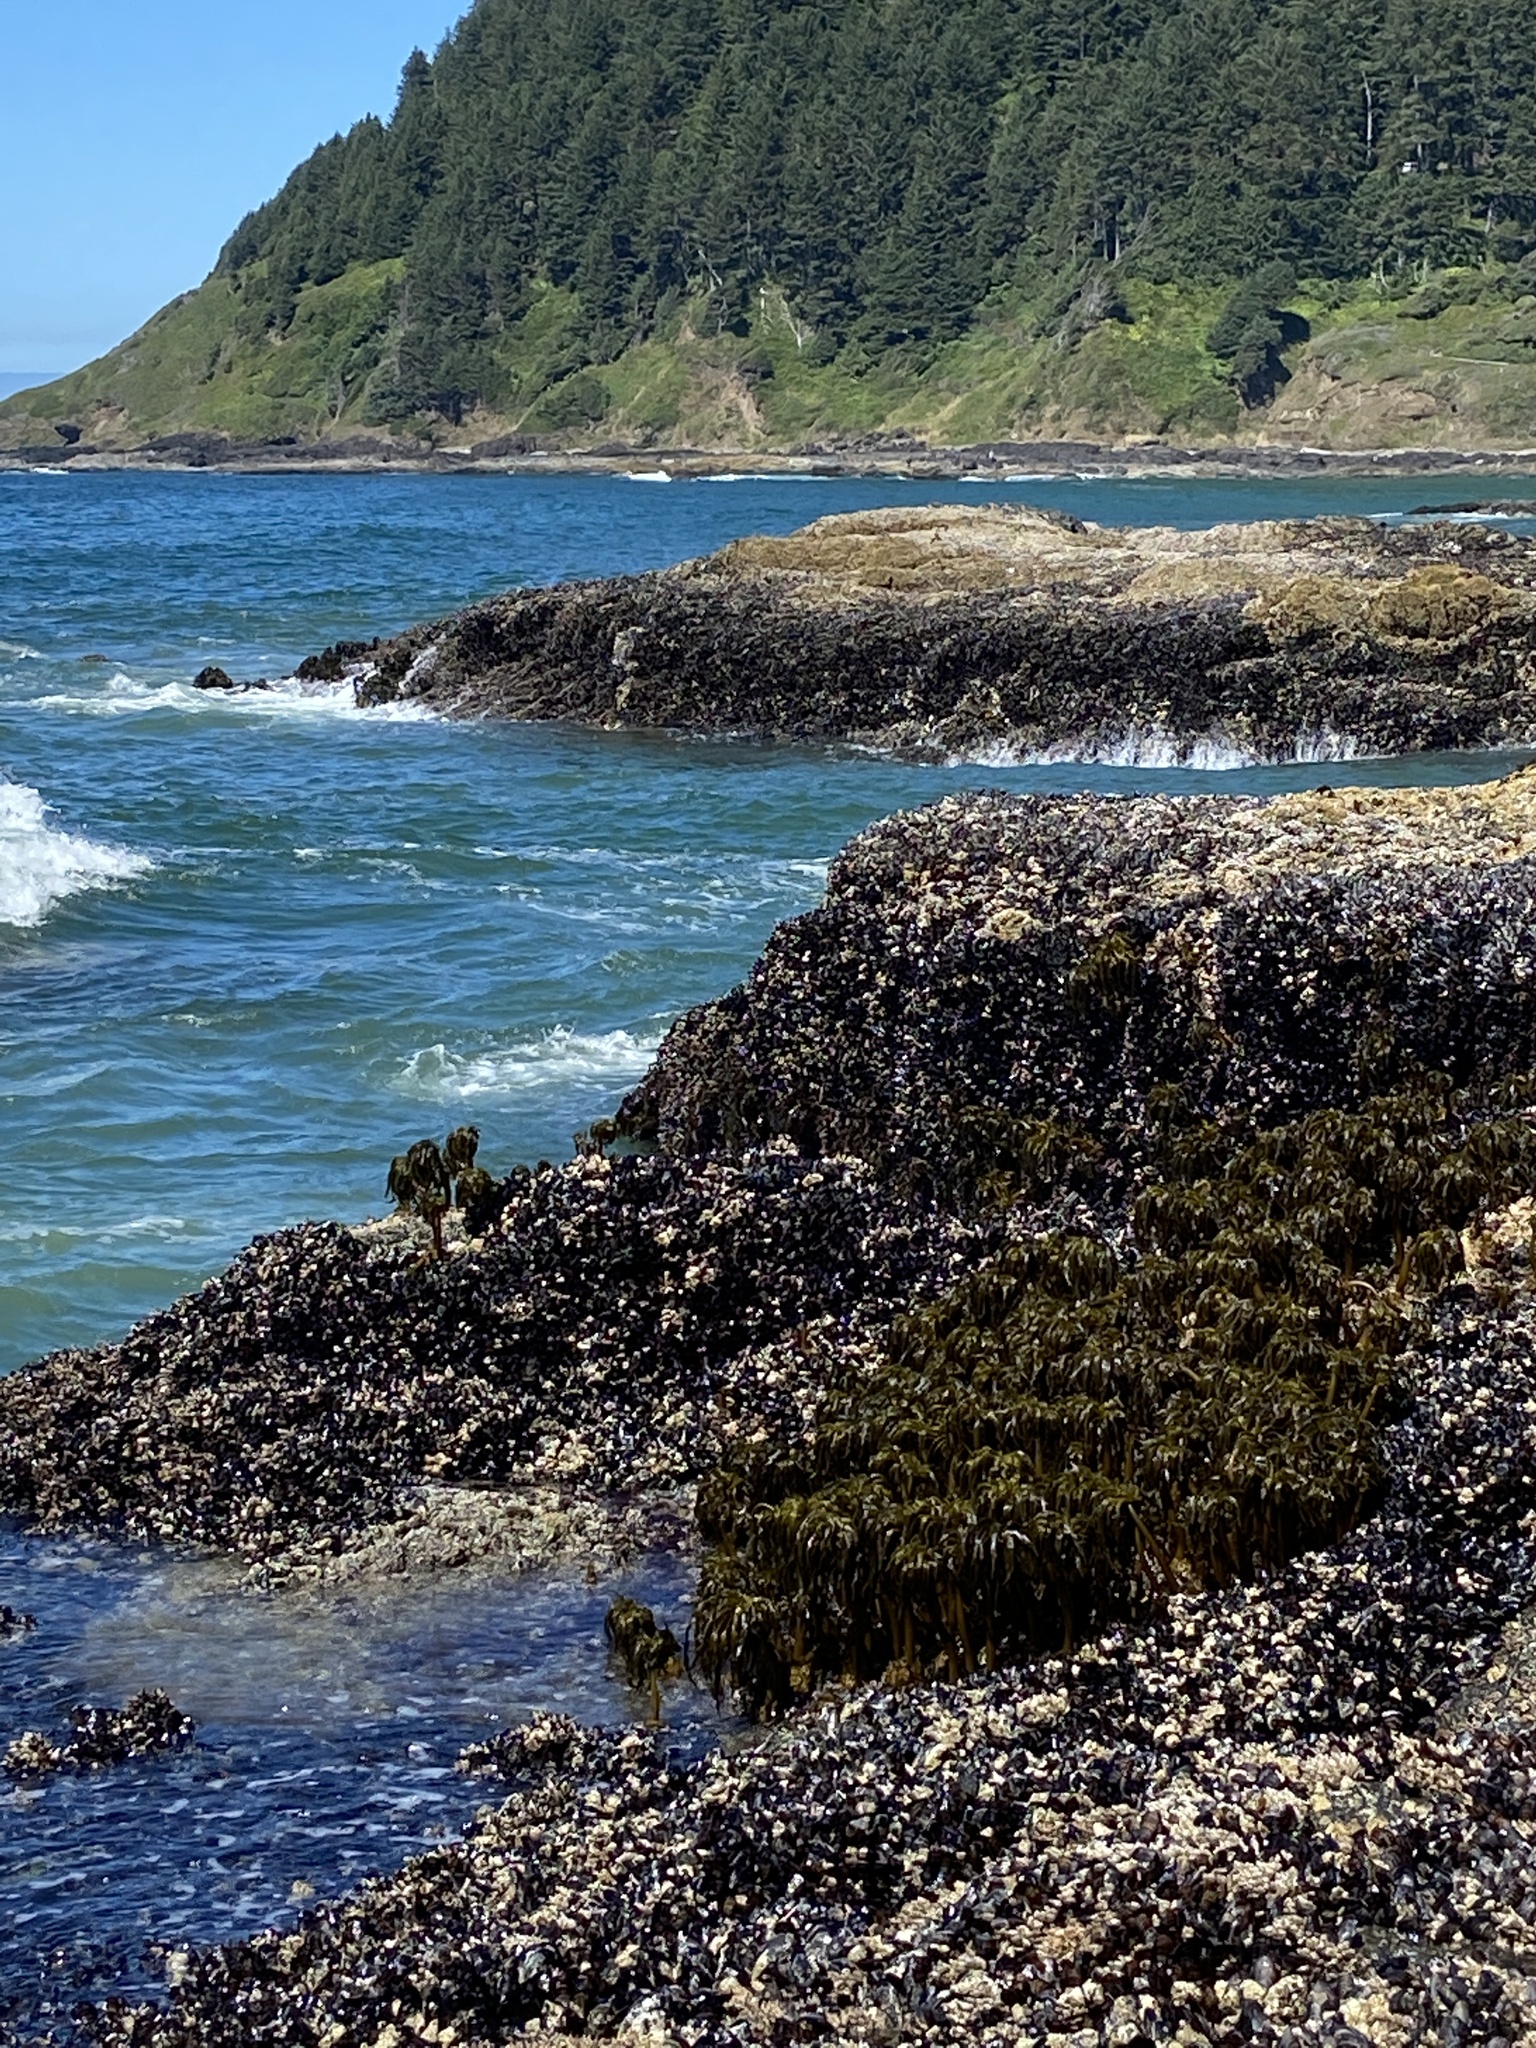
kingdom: Chromista
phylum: Ochrophyta
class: Phaeophyceae
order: Laminariales
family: Laminariaceae
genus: Postelsia
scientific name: Postelsia palmiformis
